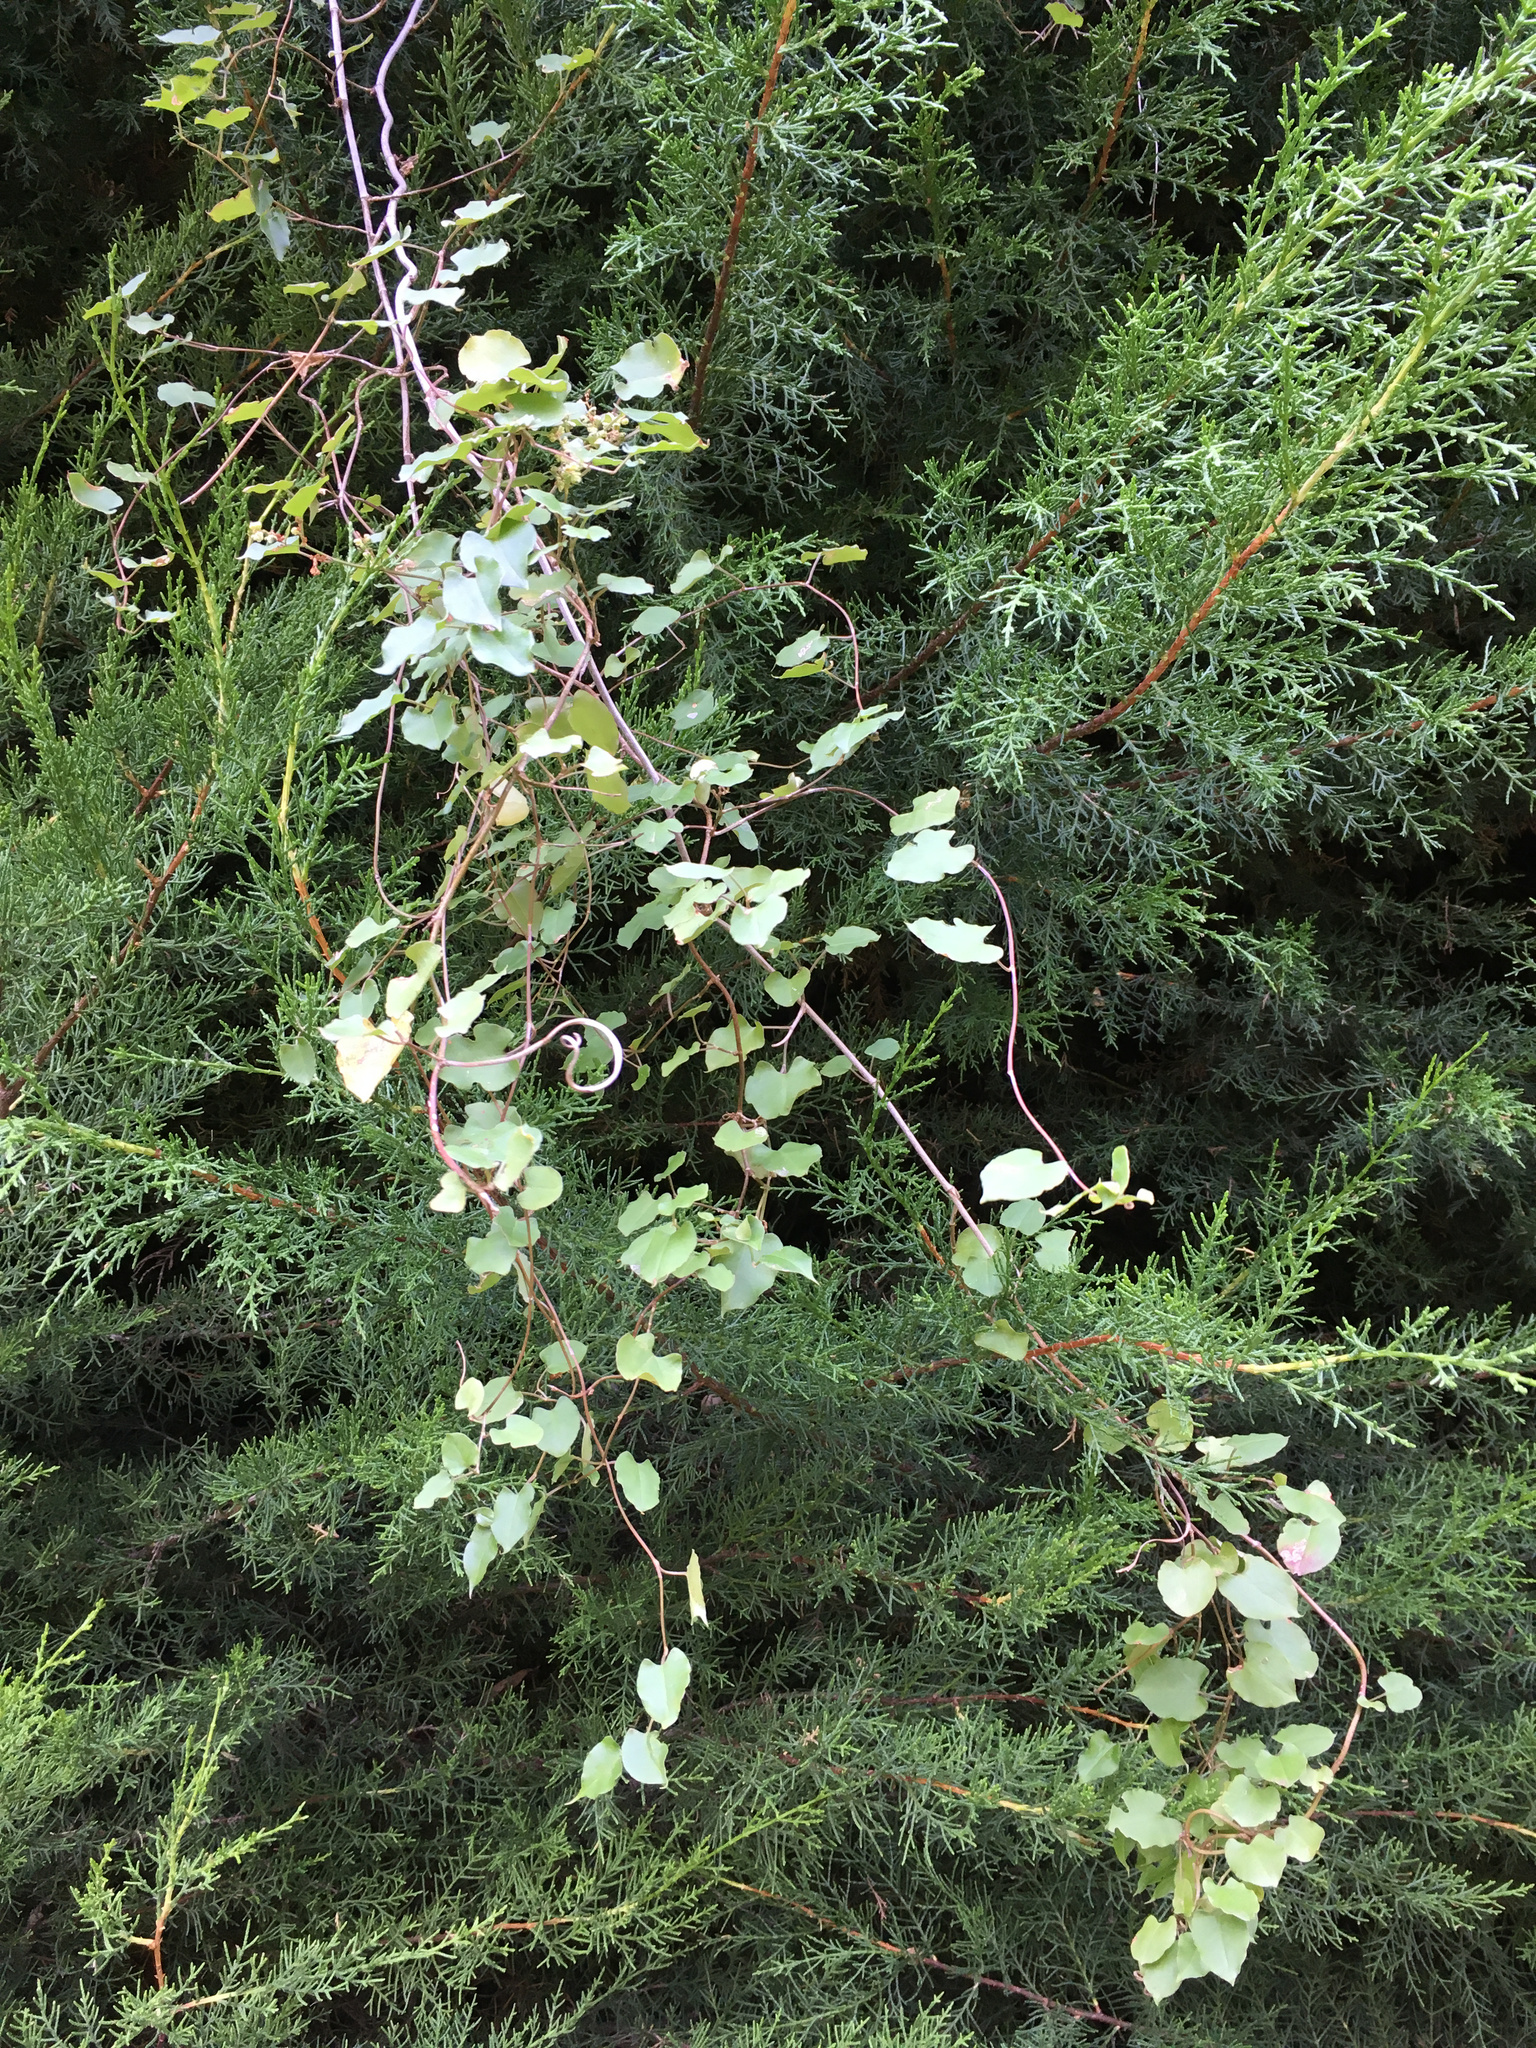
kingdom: Plantae
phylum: Tracheophyta
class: Magnoliopsida
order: Caryophyllales
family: Polygonaceae
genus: Muehlenbeckia
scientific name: Muehlenbeckia australis
